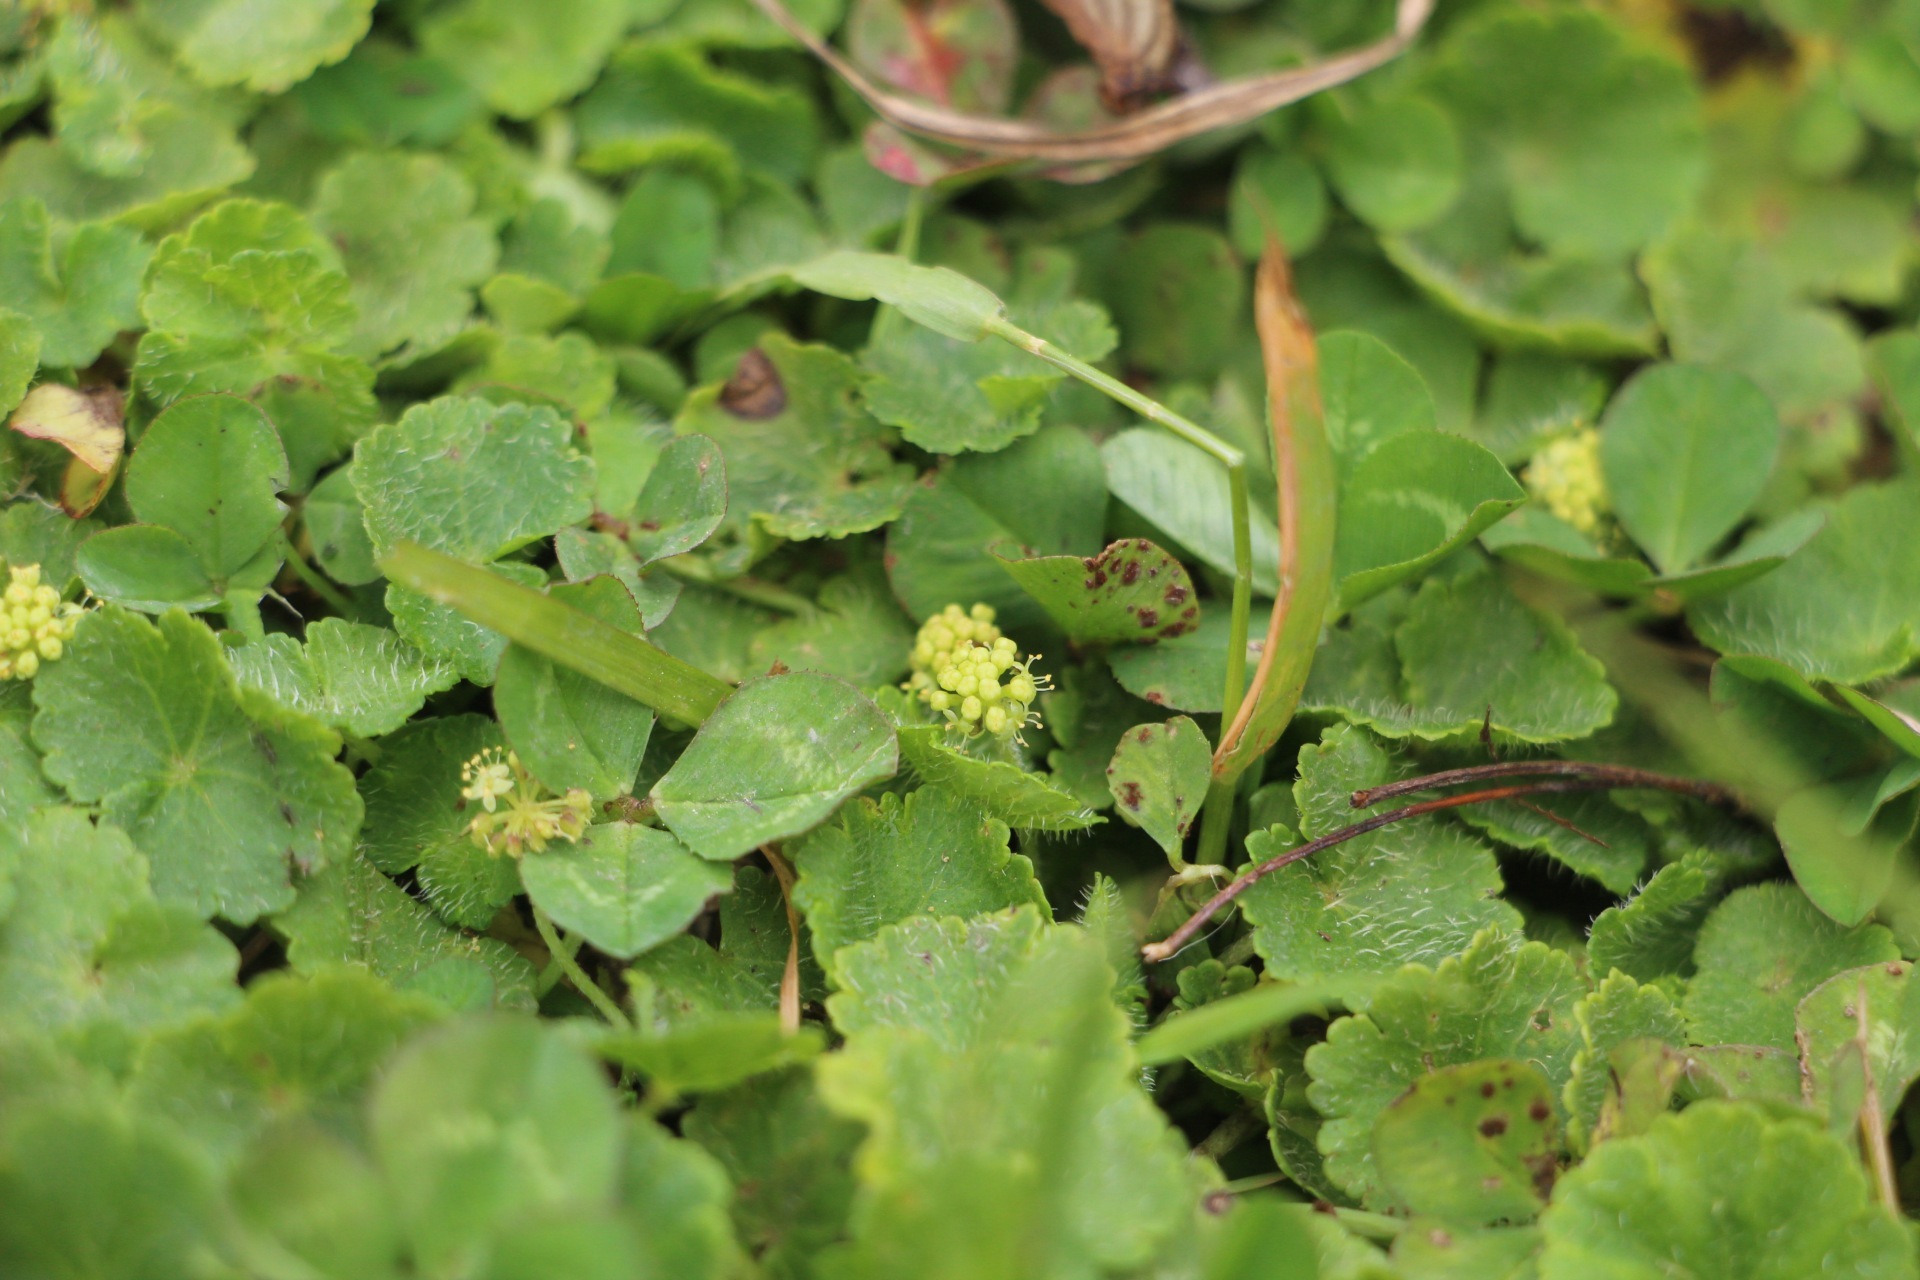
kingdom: Plantae
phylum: Tracheophyta
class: Magnoliopsida
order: Apiales
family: Araliaceae
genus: Hydrocotyle
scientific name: Hydrocotyle bonplandii
